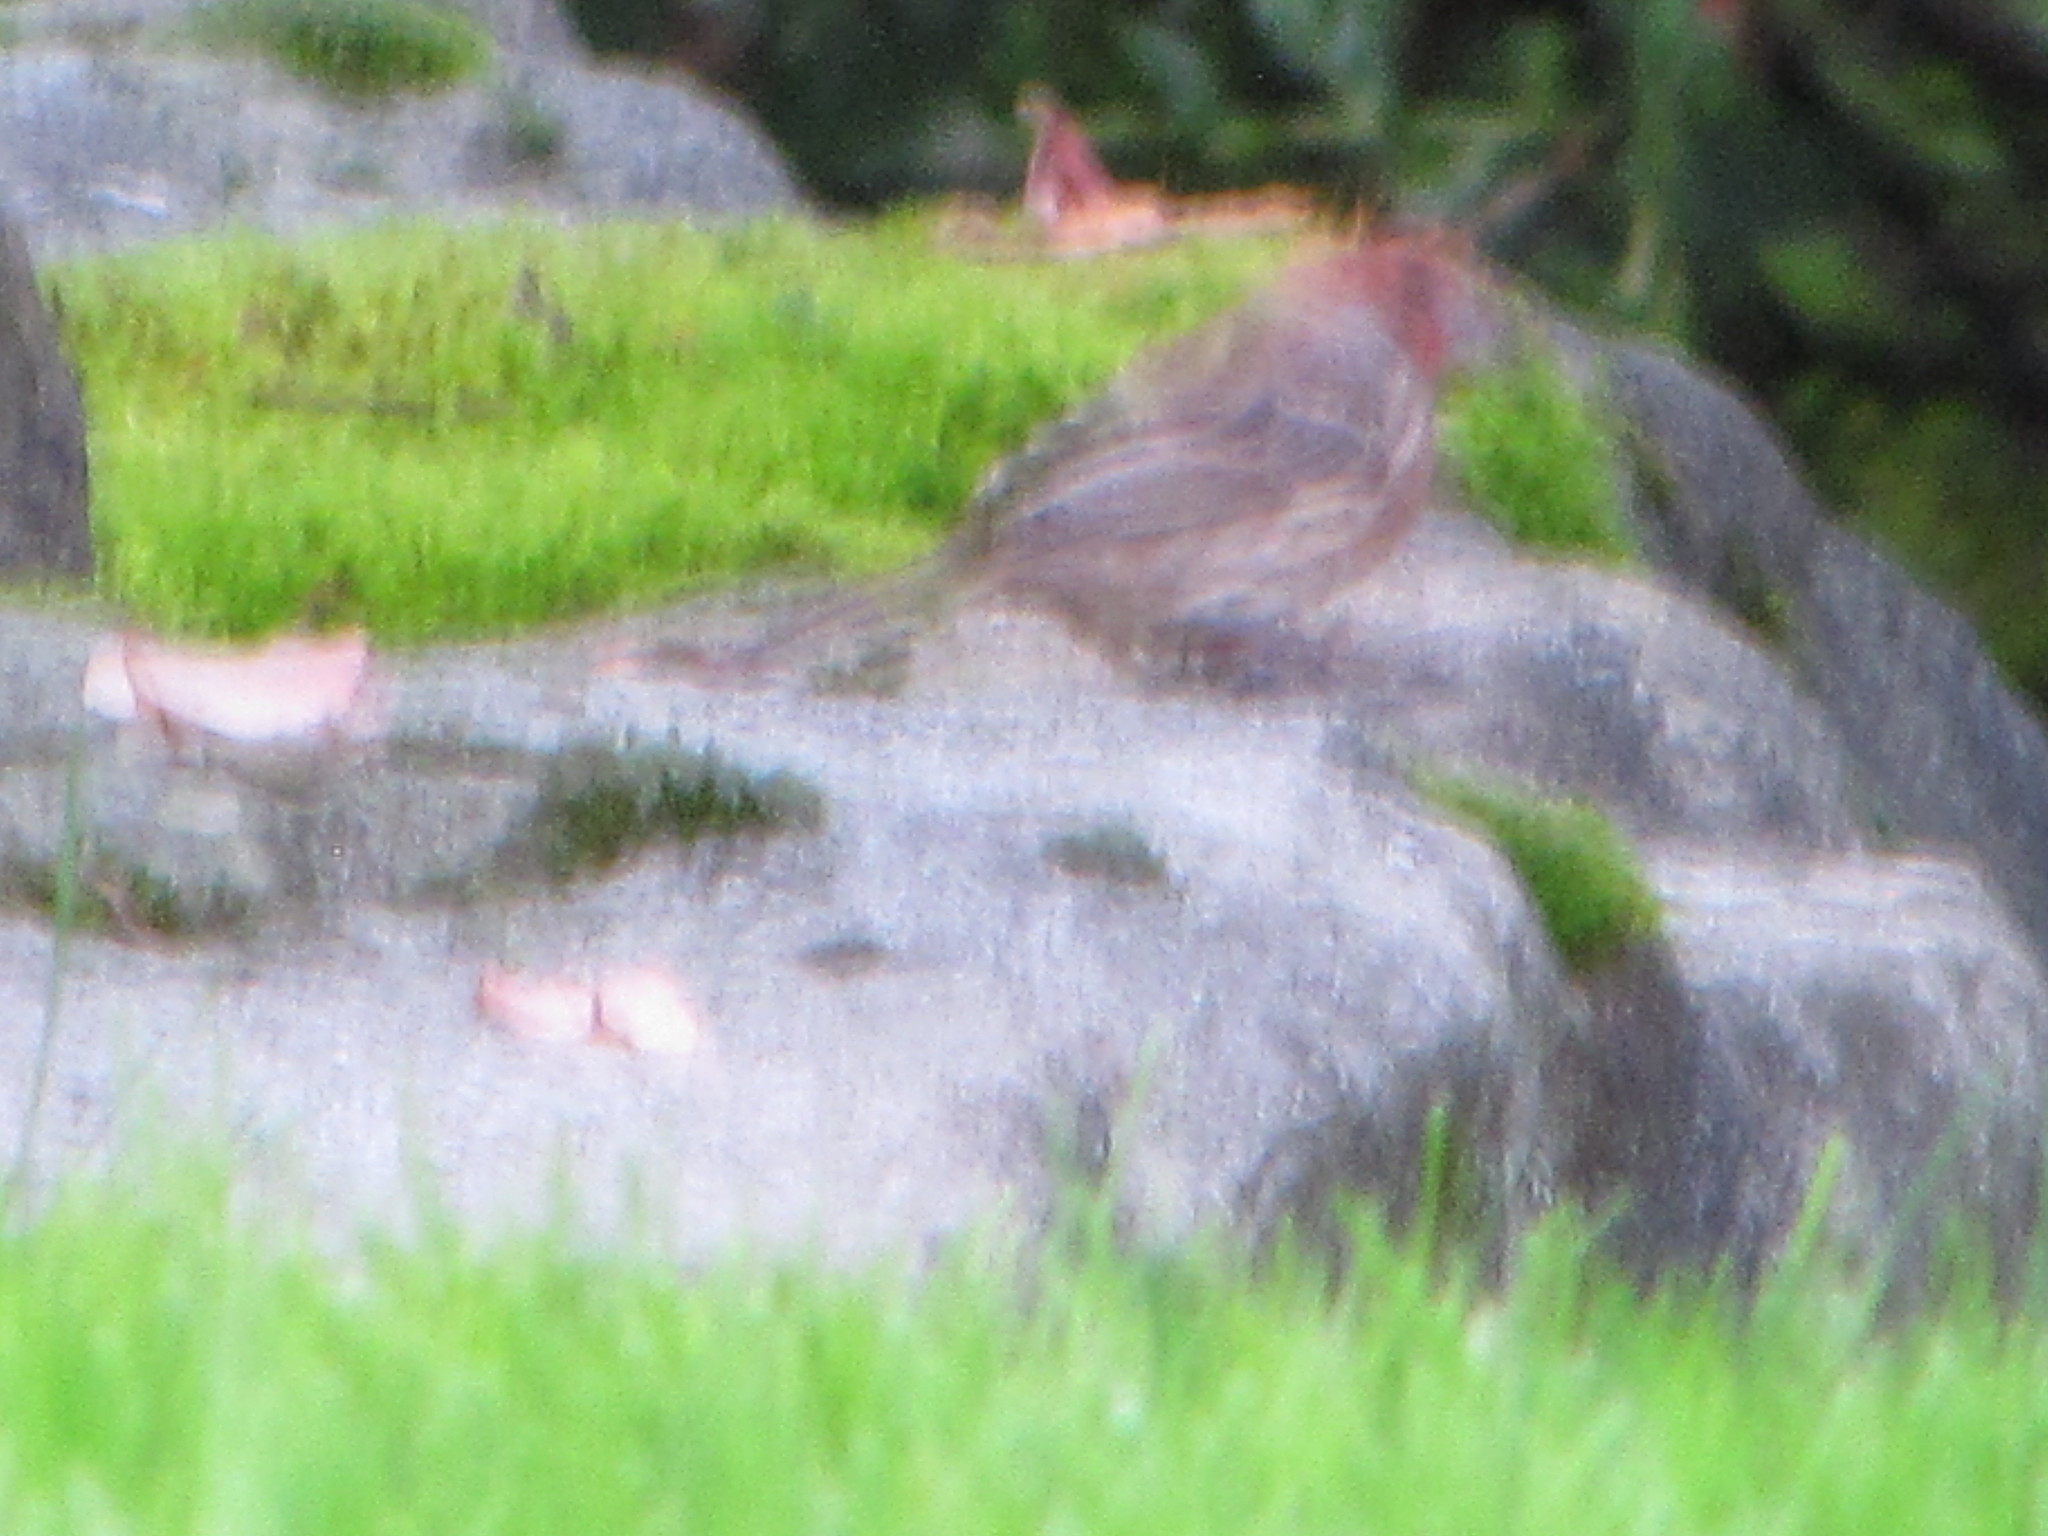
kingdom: Animalia
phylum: Chordata
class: Aves
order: Passeriformes
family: Fringillidae
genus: Haemorhous
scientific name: Haemorhous mexicanus
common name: House finch
